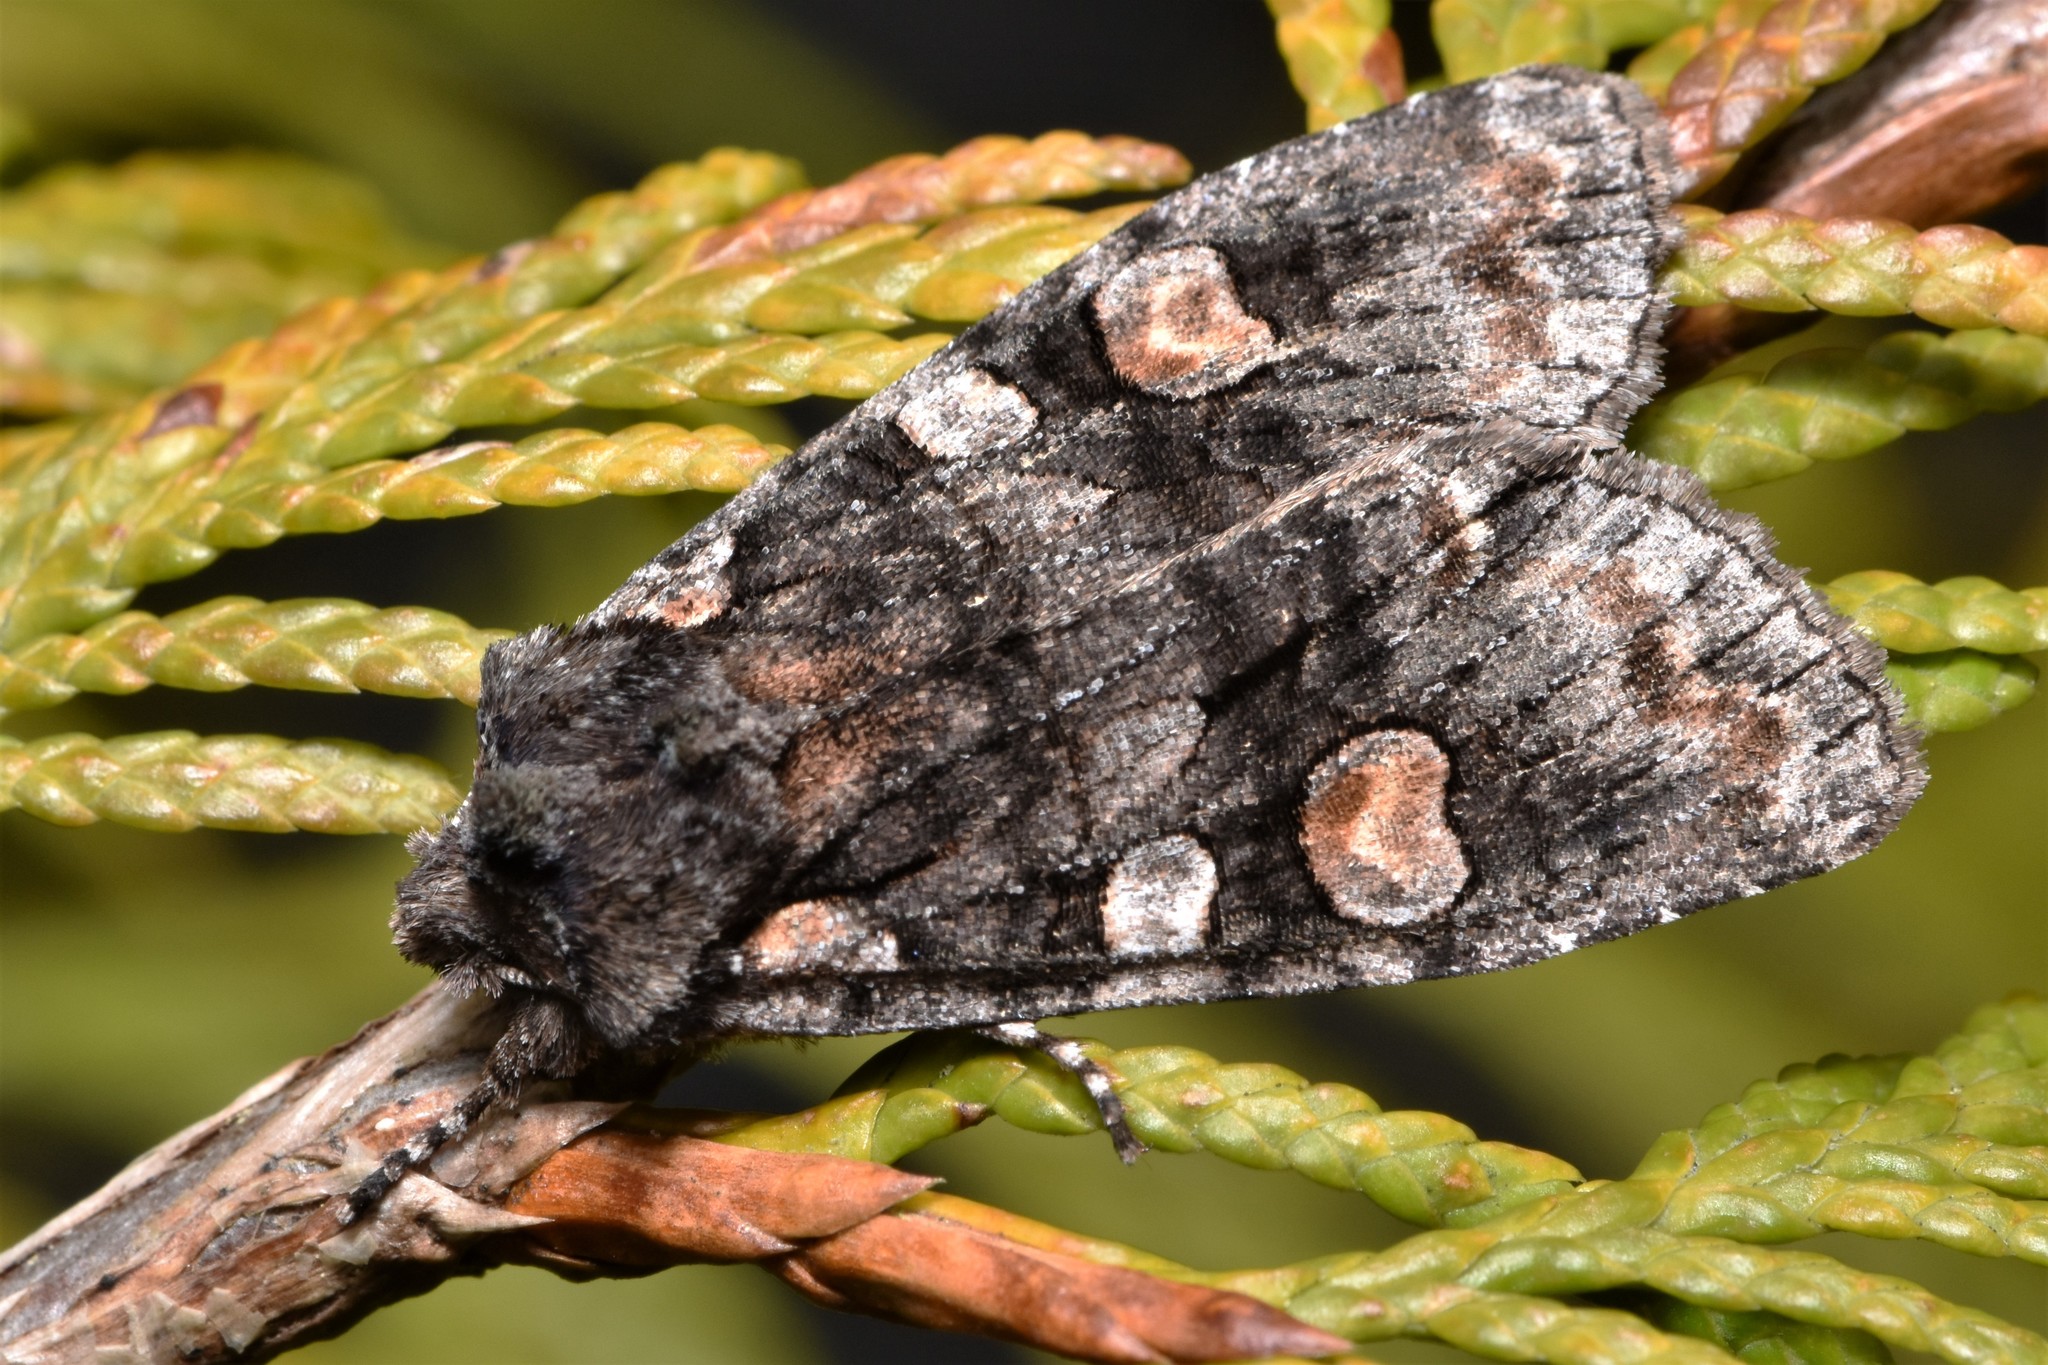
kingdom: Animalia
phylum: Arthropoda
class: Insecta
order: Lepidoptera
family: Noctuidae
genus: Lithophane
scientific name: Lithophane dilatocula
